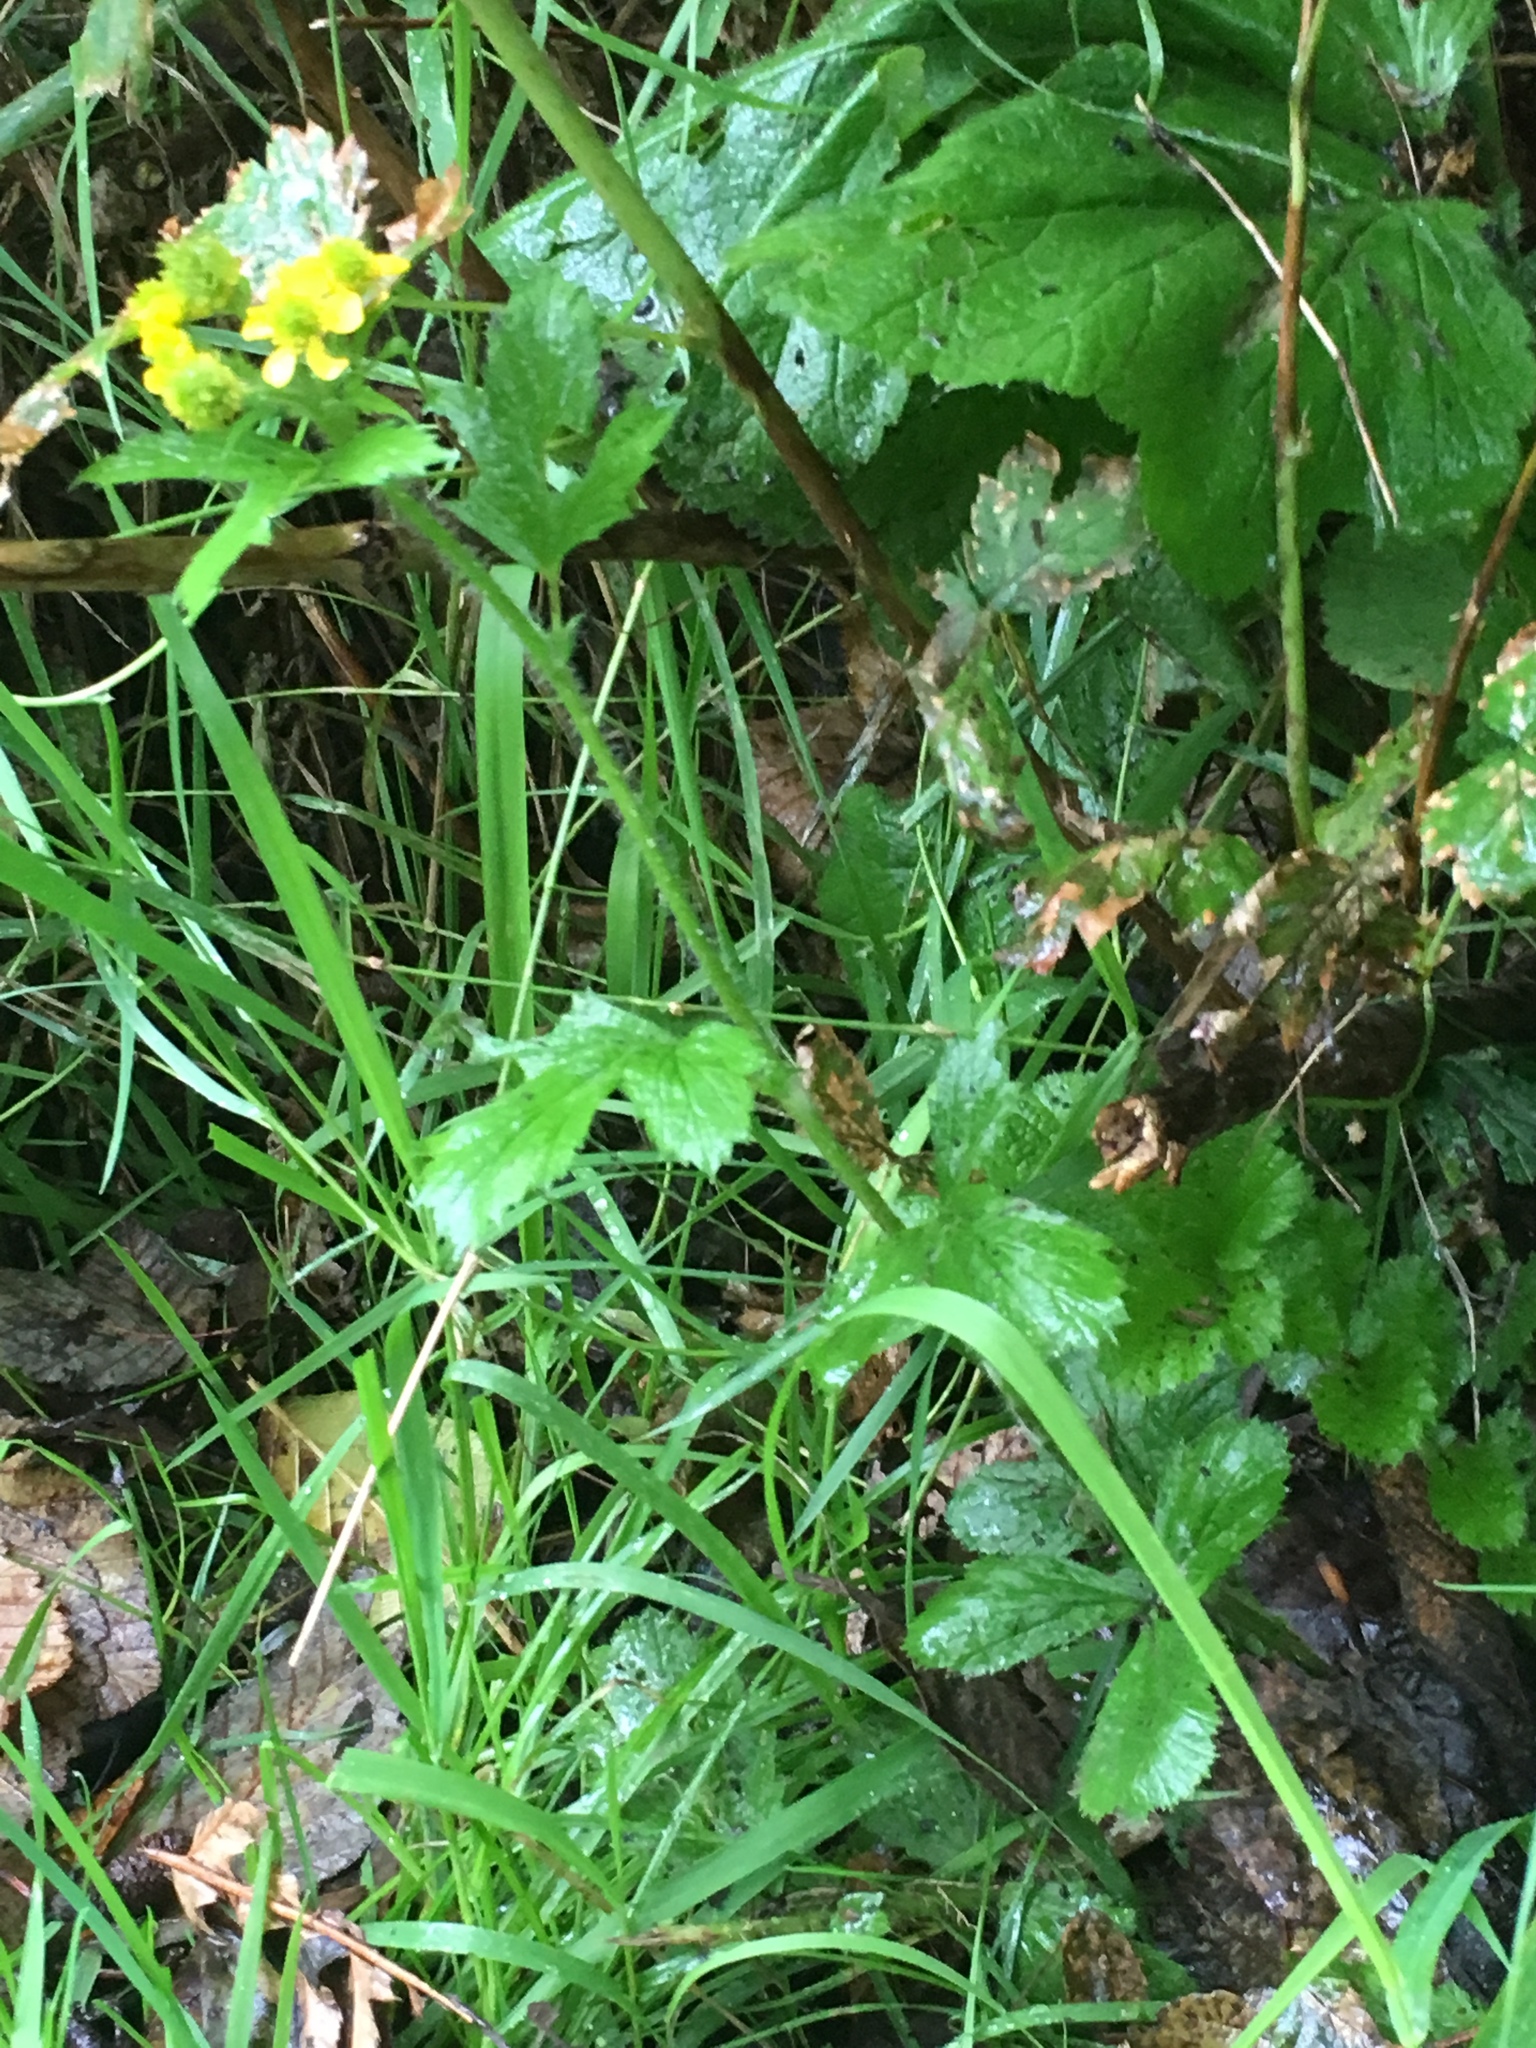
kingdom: Plantae
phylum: Tracheophyta
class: Magnoliopsida
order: Rosales
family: Rosaceae
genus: Geum
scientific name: Geum macrophyllum
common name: Large-leaved avens
